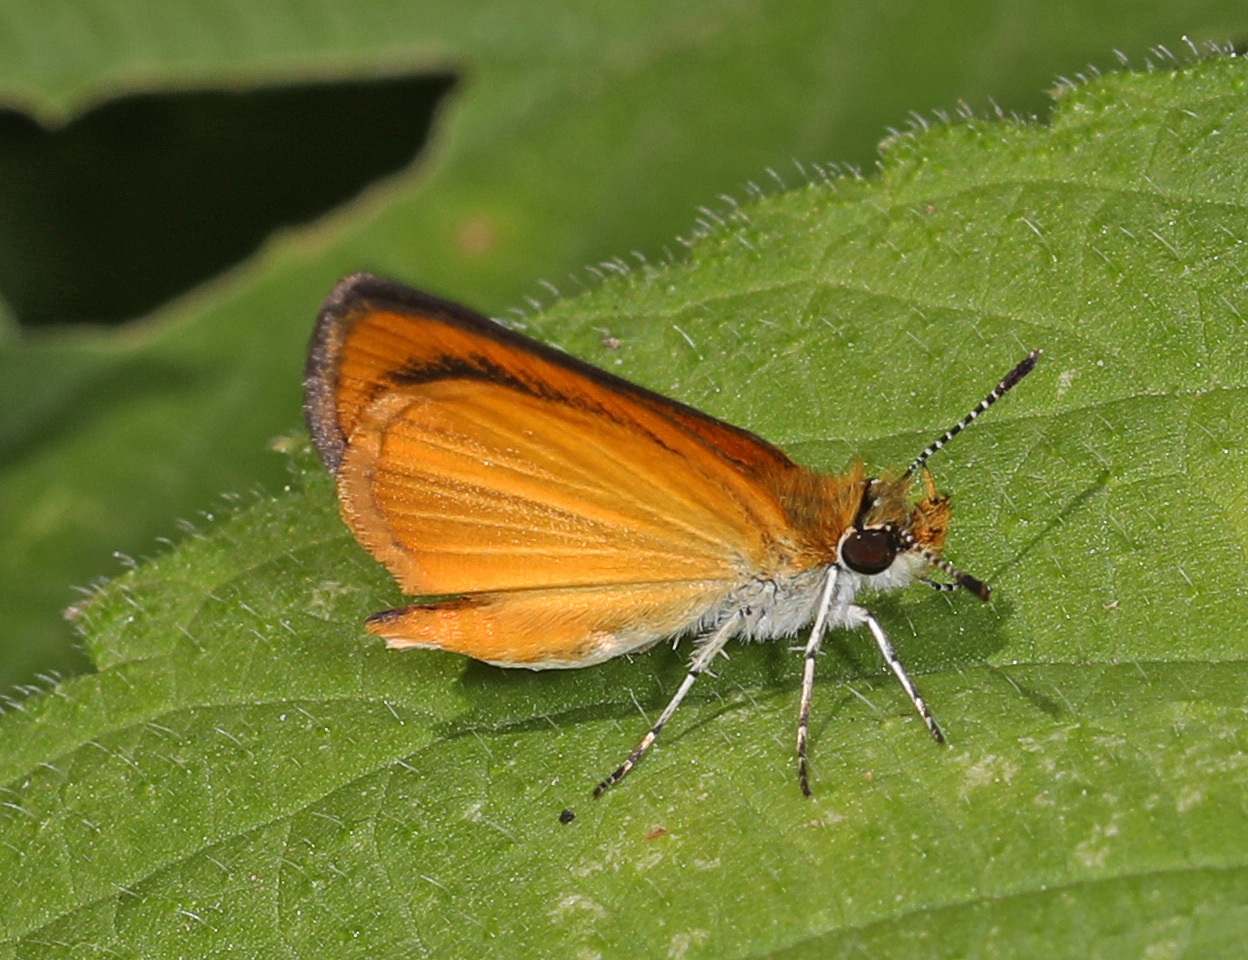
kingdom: Animalia
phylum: Arthropoda
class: Insecta
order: Lepidoptera
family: Hesperiidae
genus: Ancyloxypha
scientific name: Ancyloxypha numitor
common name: Least skipper
